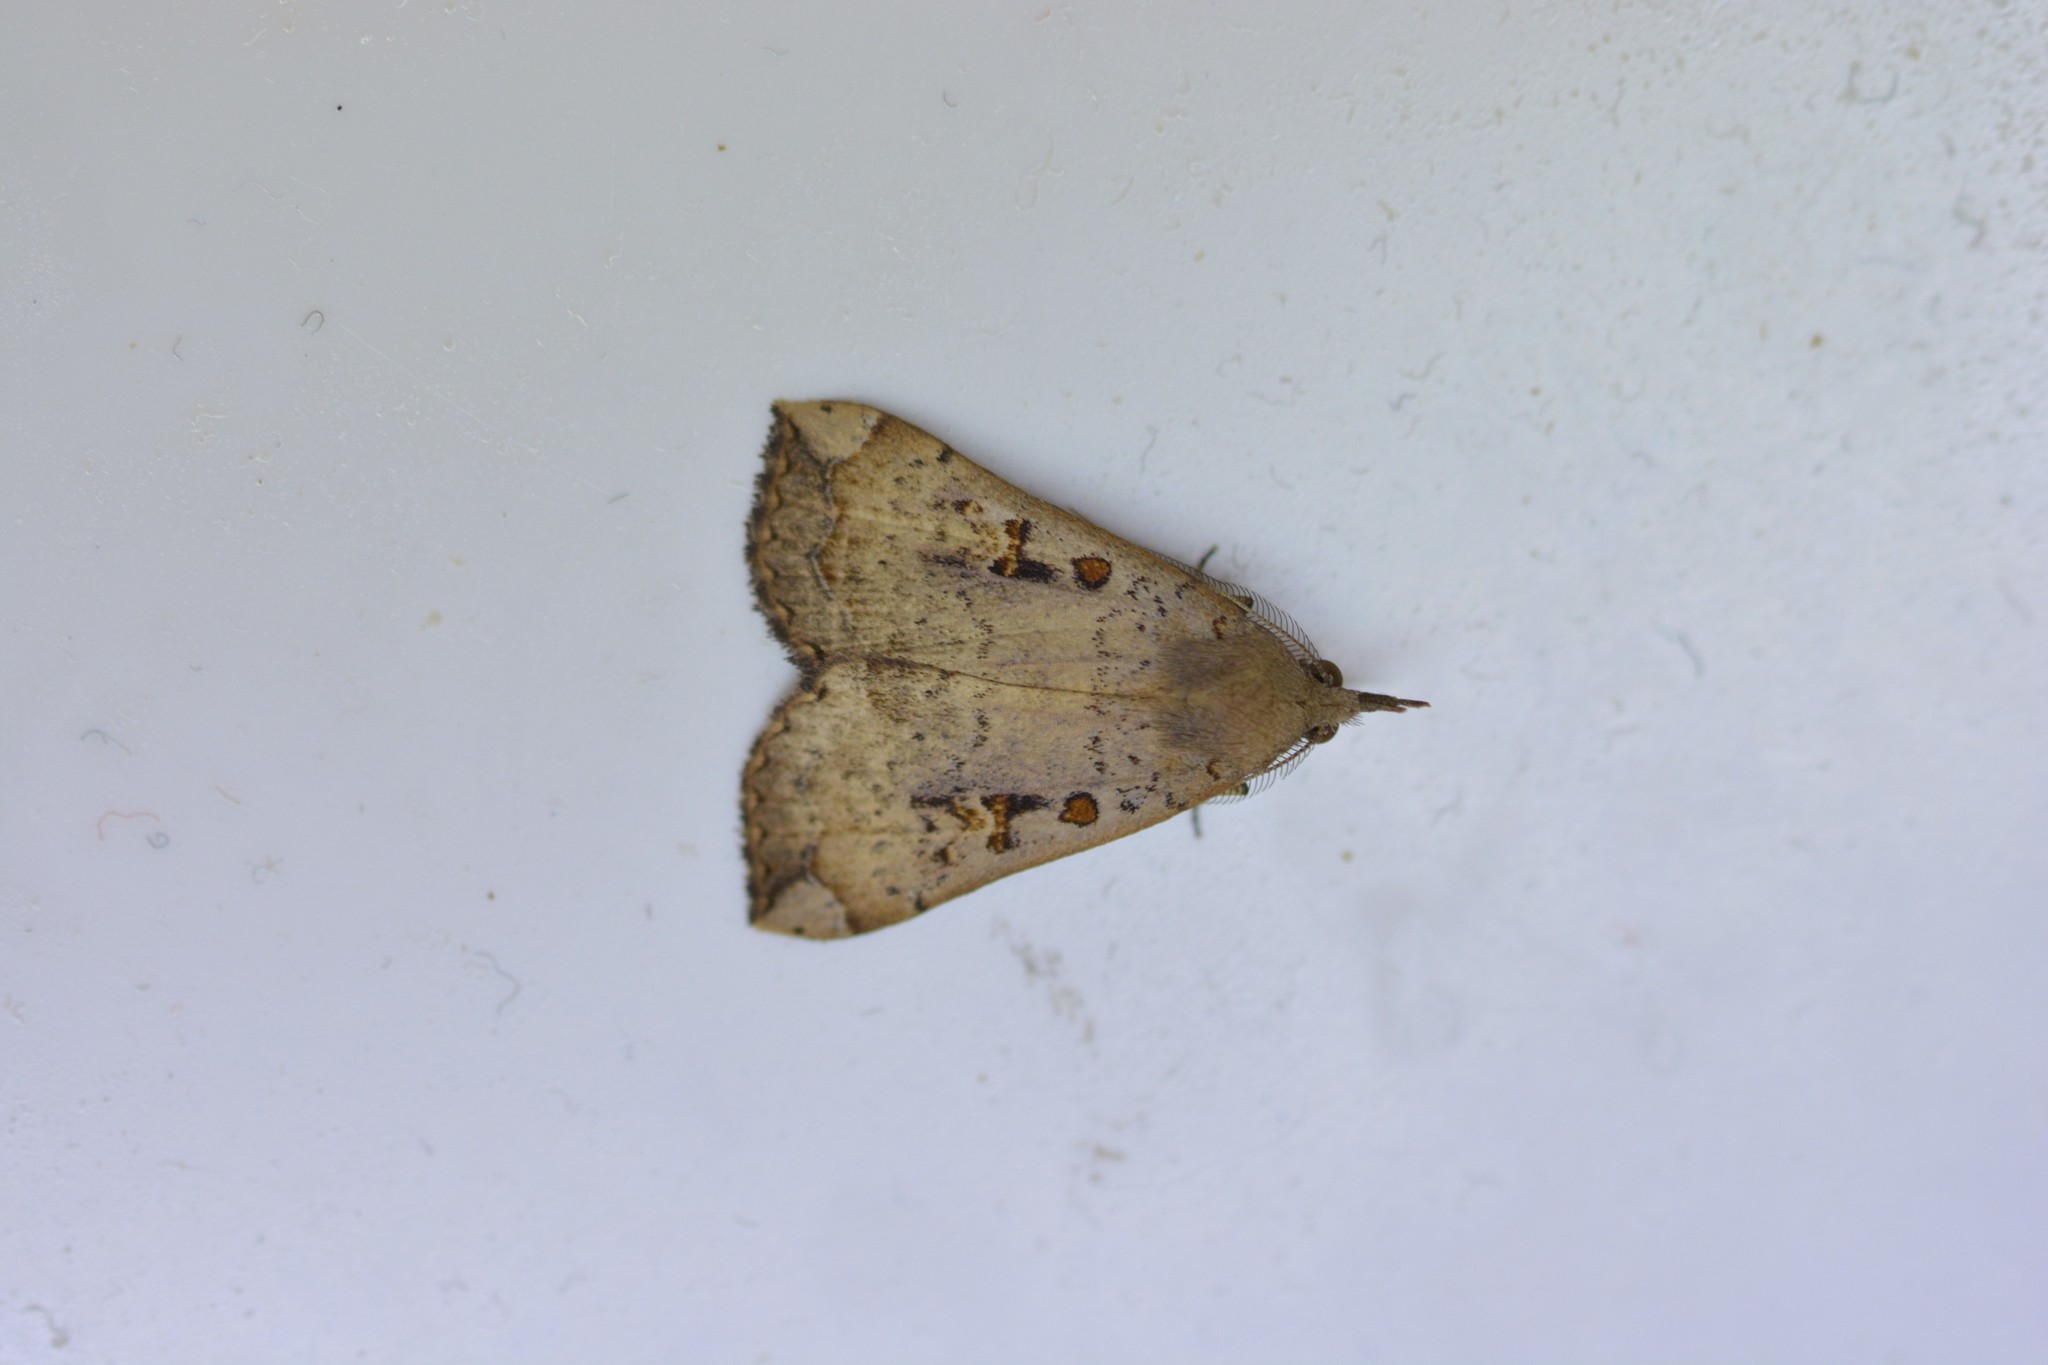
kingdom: Animalia
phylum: Arthropoda
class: Insecta
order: Lepidoptera
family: Erebidae
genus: Rhapsa
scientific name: Rhapsa scotosialis
